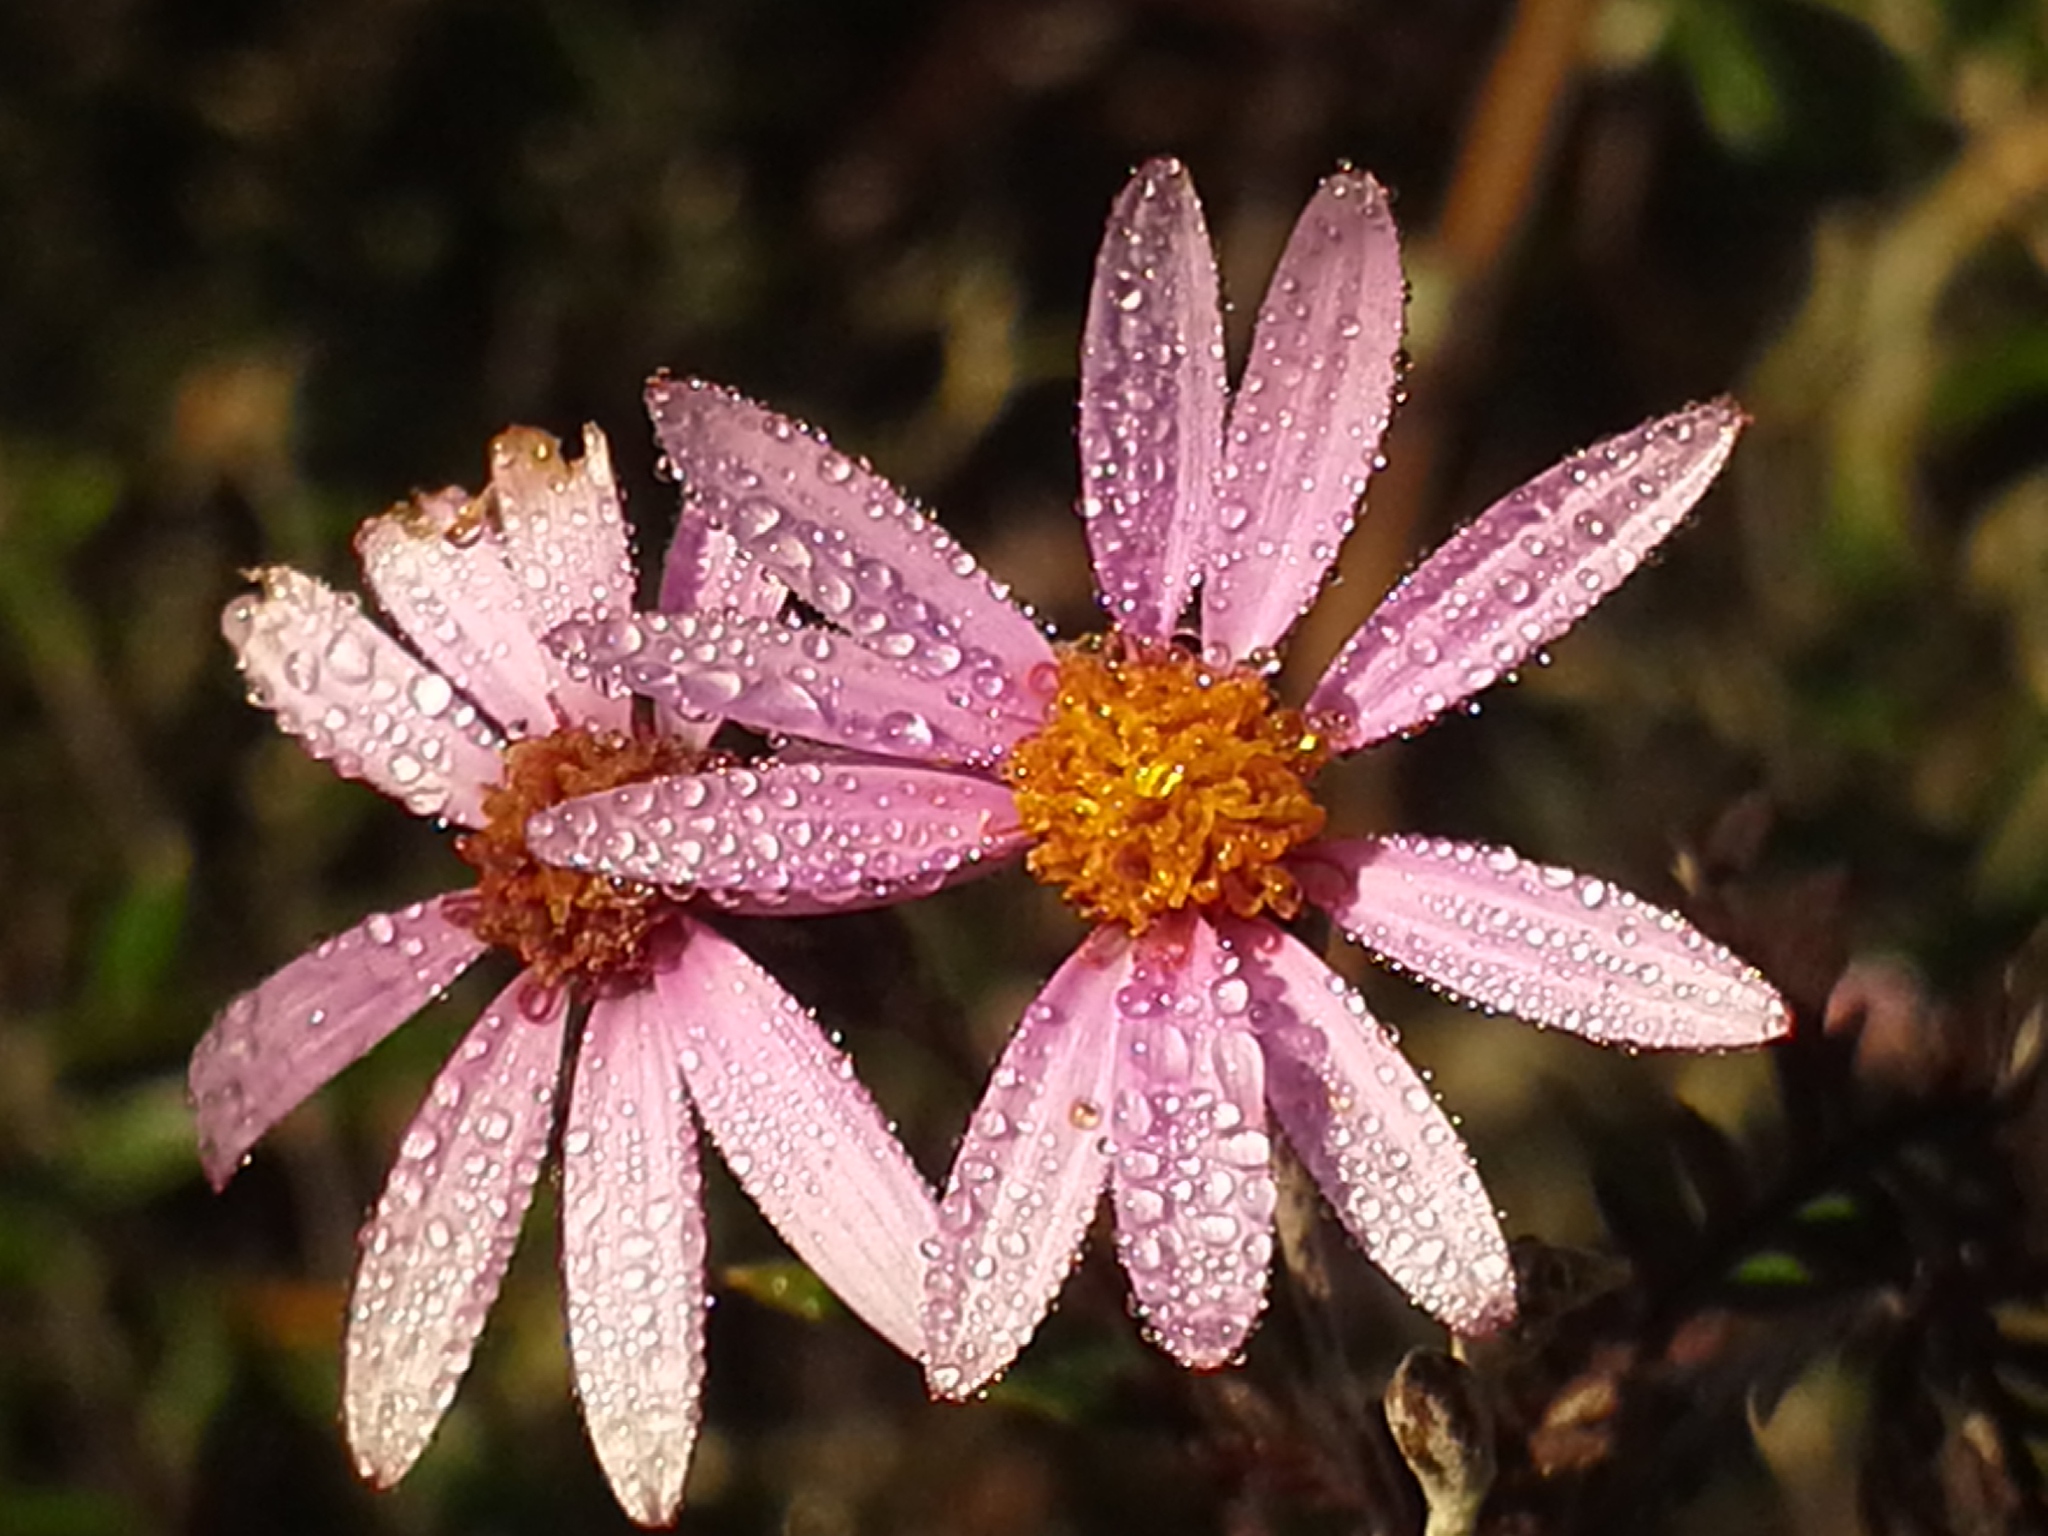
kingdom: Plantae
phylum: Tracheophyta
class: Magnoliopsida
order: Asterales
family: Asteraceae
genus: Athrixia
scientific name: Athrixia phylicoides
